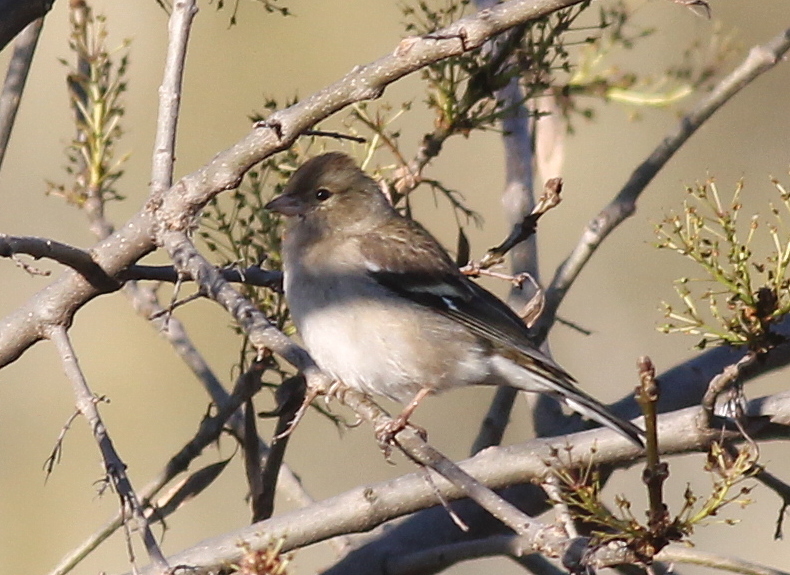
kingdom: Animalia
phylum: Chordata
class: Aves
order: Passeriformes
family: Fringillidae
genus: Fringilla
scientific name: Fringilla coelebs
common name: Common chaffinch
